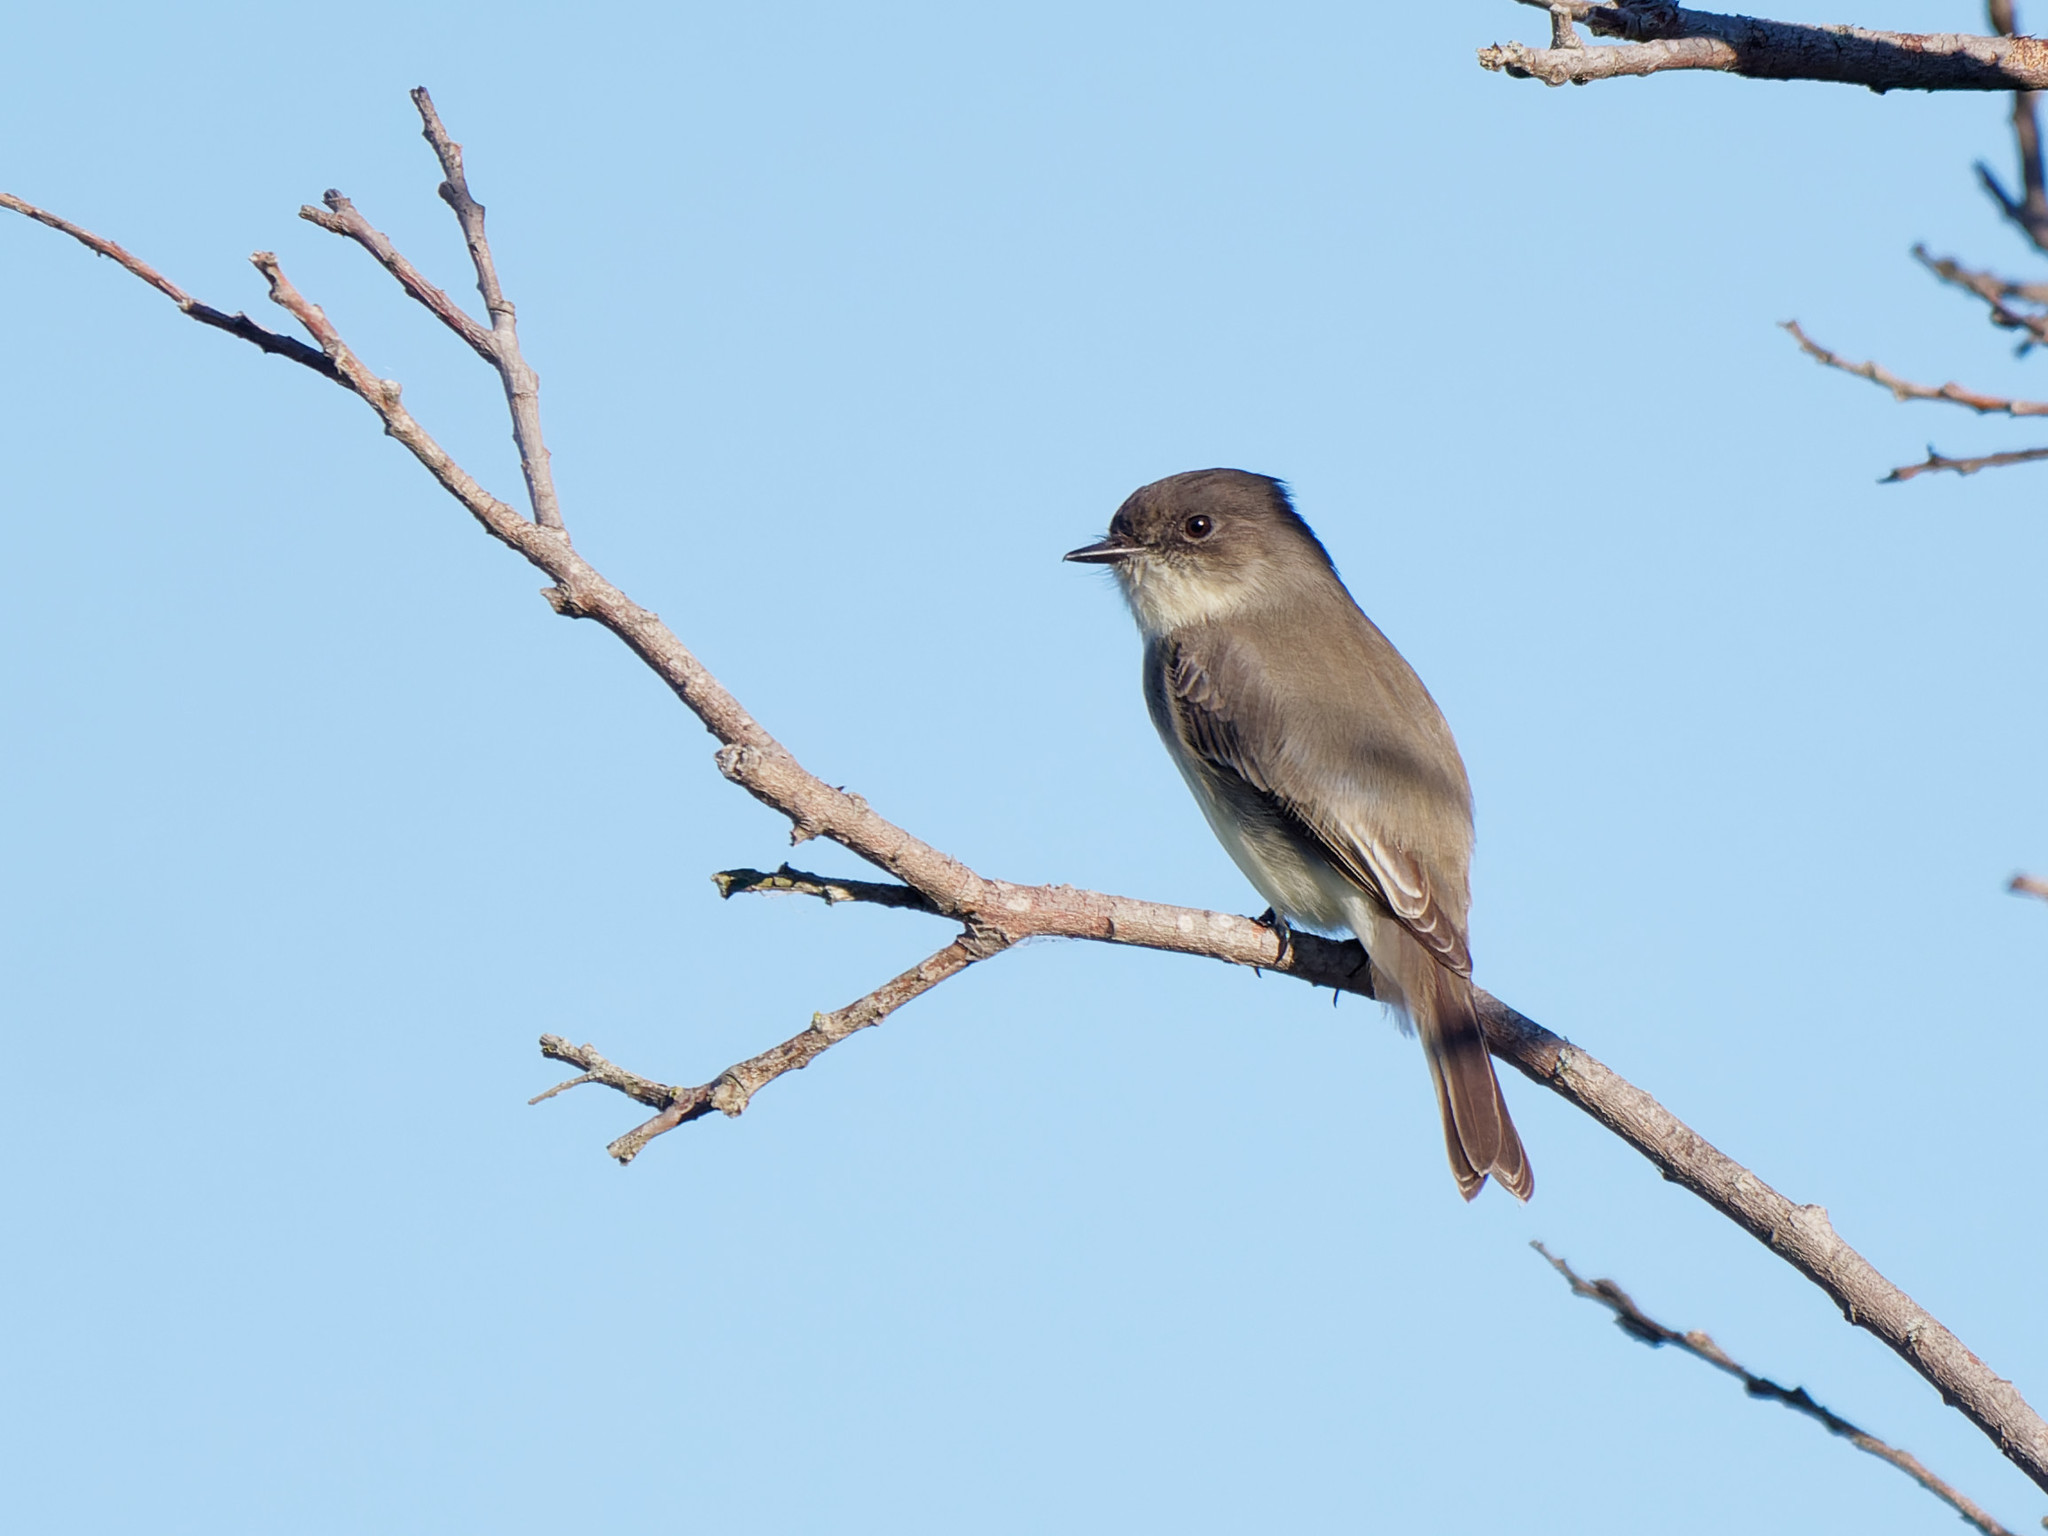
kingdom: Animalia
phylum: Chordata
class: Aves
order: Passeriformes
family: Tyrannidae
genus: Sayornis
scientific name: Sayornis phoebe
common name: Eastern phoebe
